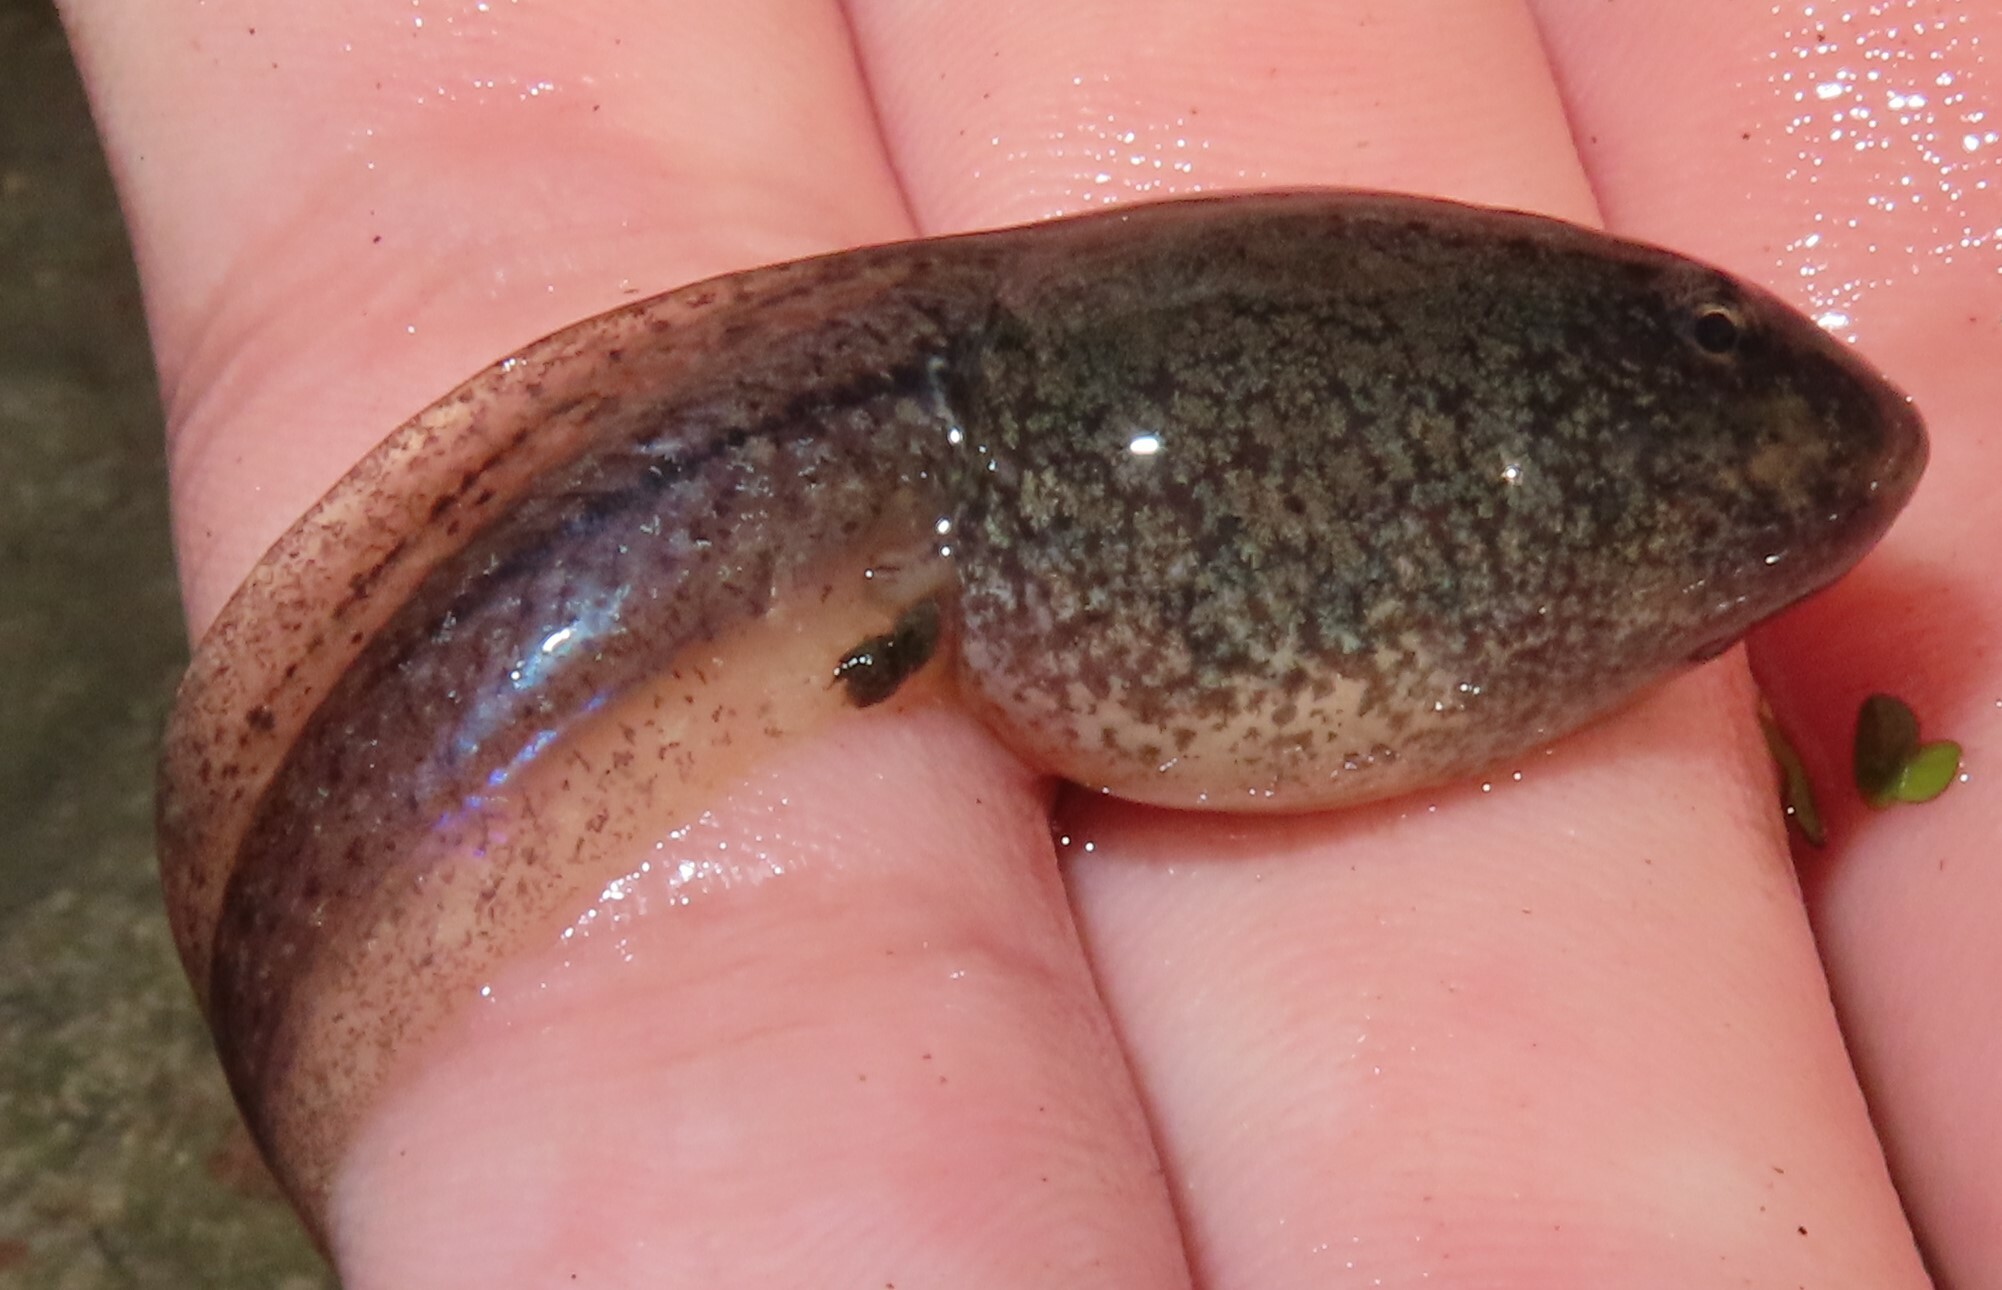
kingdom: Animalia
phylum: Chordata
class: Amphibia
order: Anura
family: Ranidae
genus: Lithobates
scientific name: Lithobates clamitans
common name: Green frog
